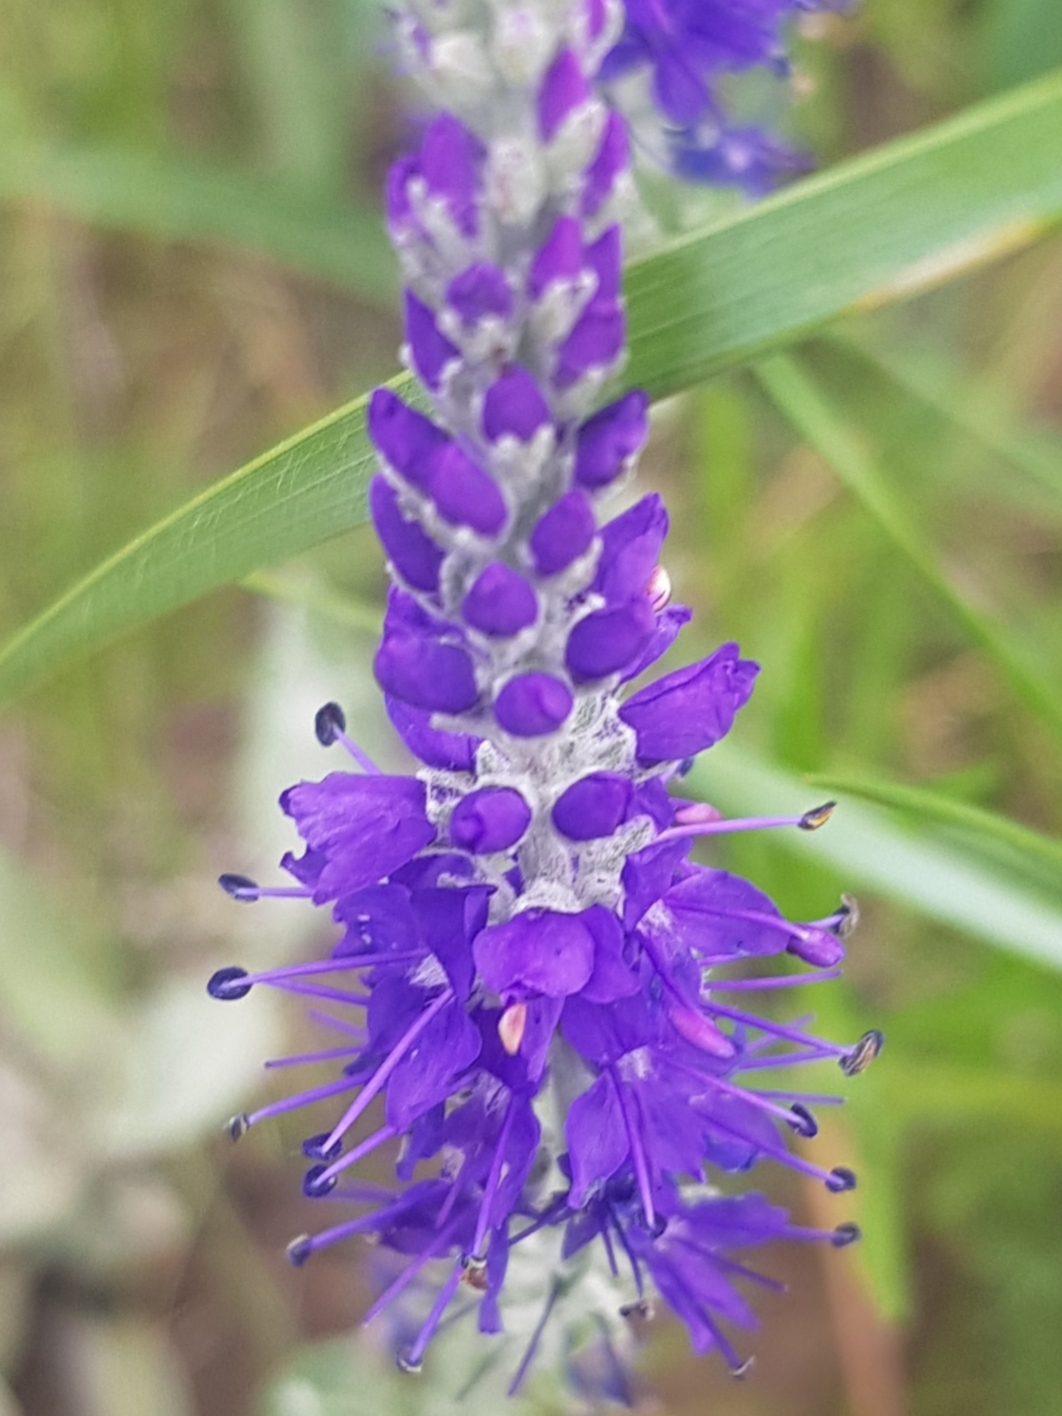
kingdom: Plantae
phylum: Tracheophyta
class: Magnoliopsida
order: Lamiales
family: Plantaginaceae
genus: Veronica
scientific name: Veronica incana
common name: Silver speedwell
